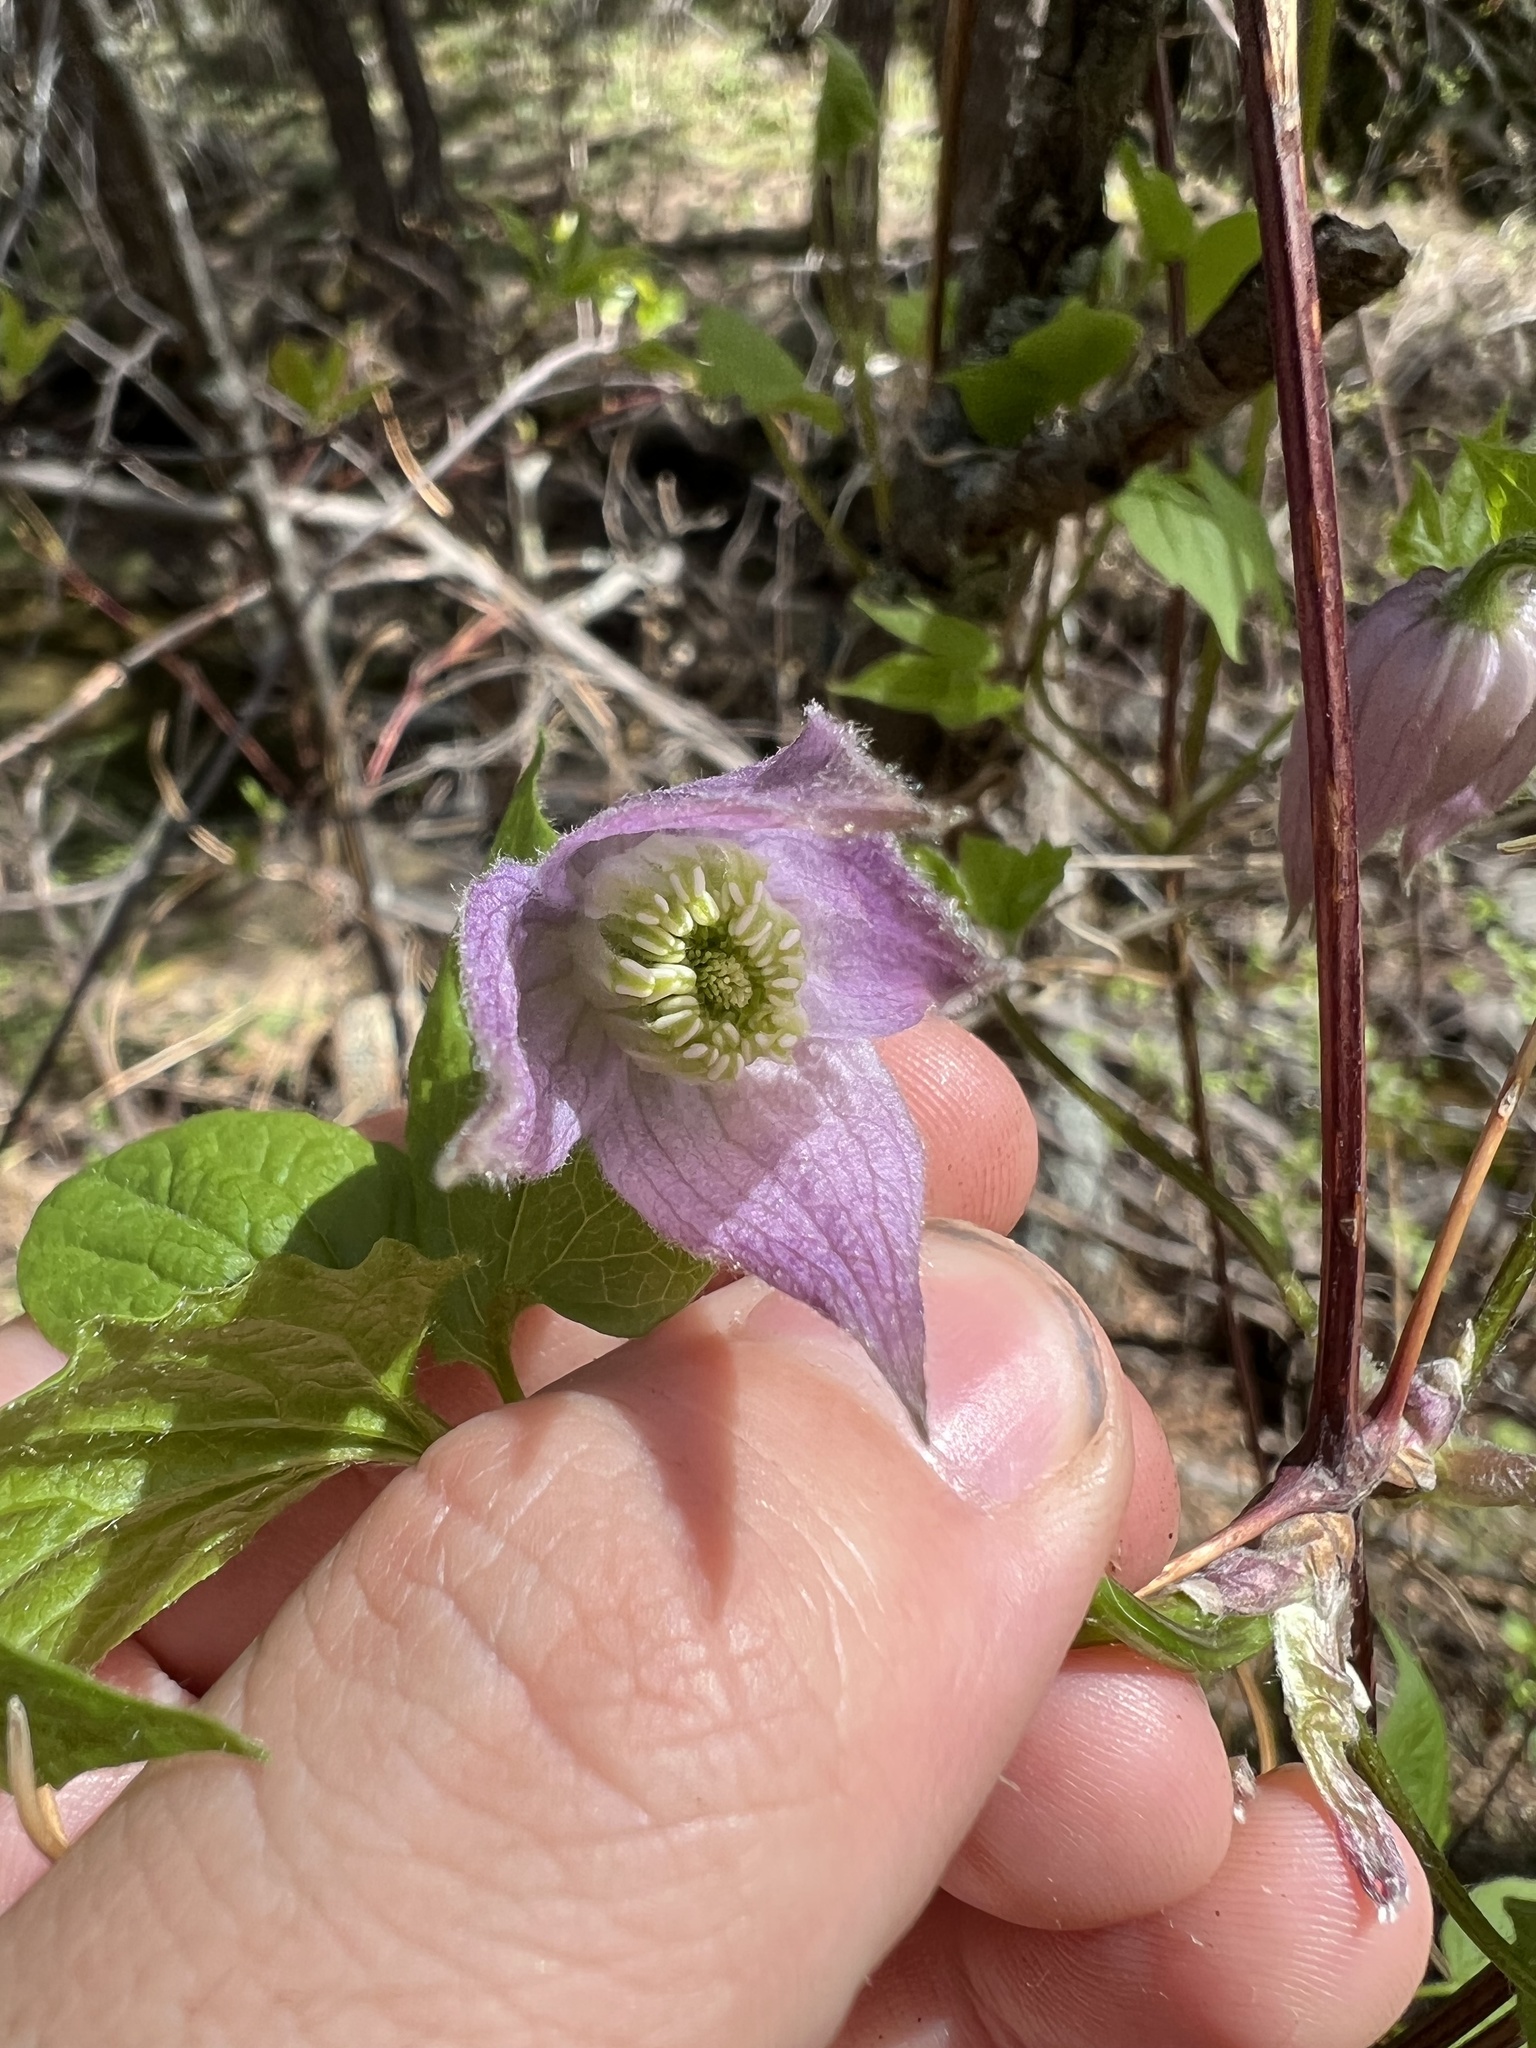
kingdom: Plantae
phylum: Tracheophyta
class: Magnoliopsida
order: Ranunculales
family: Ranunculaceae
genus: Clematis
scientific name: Clematis occidentalis
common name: Purple clematis
